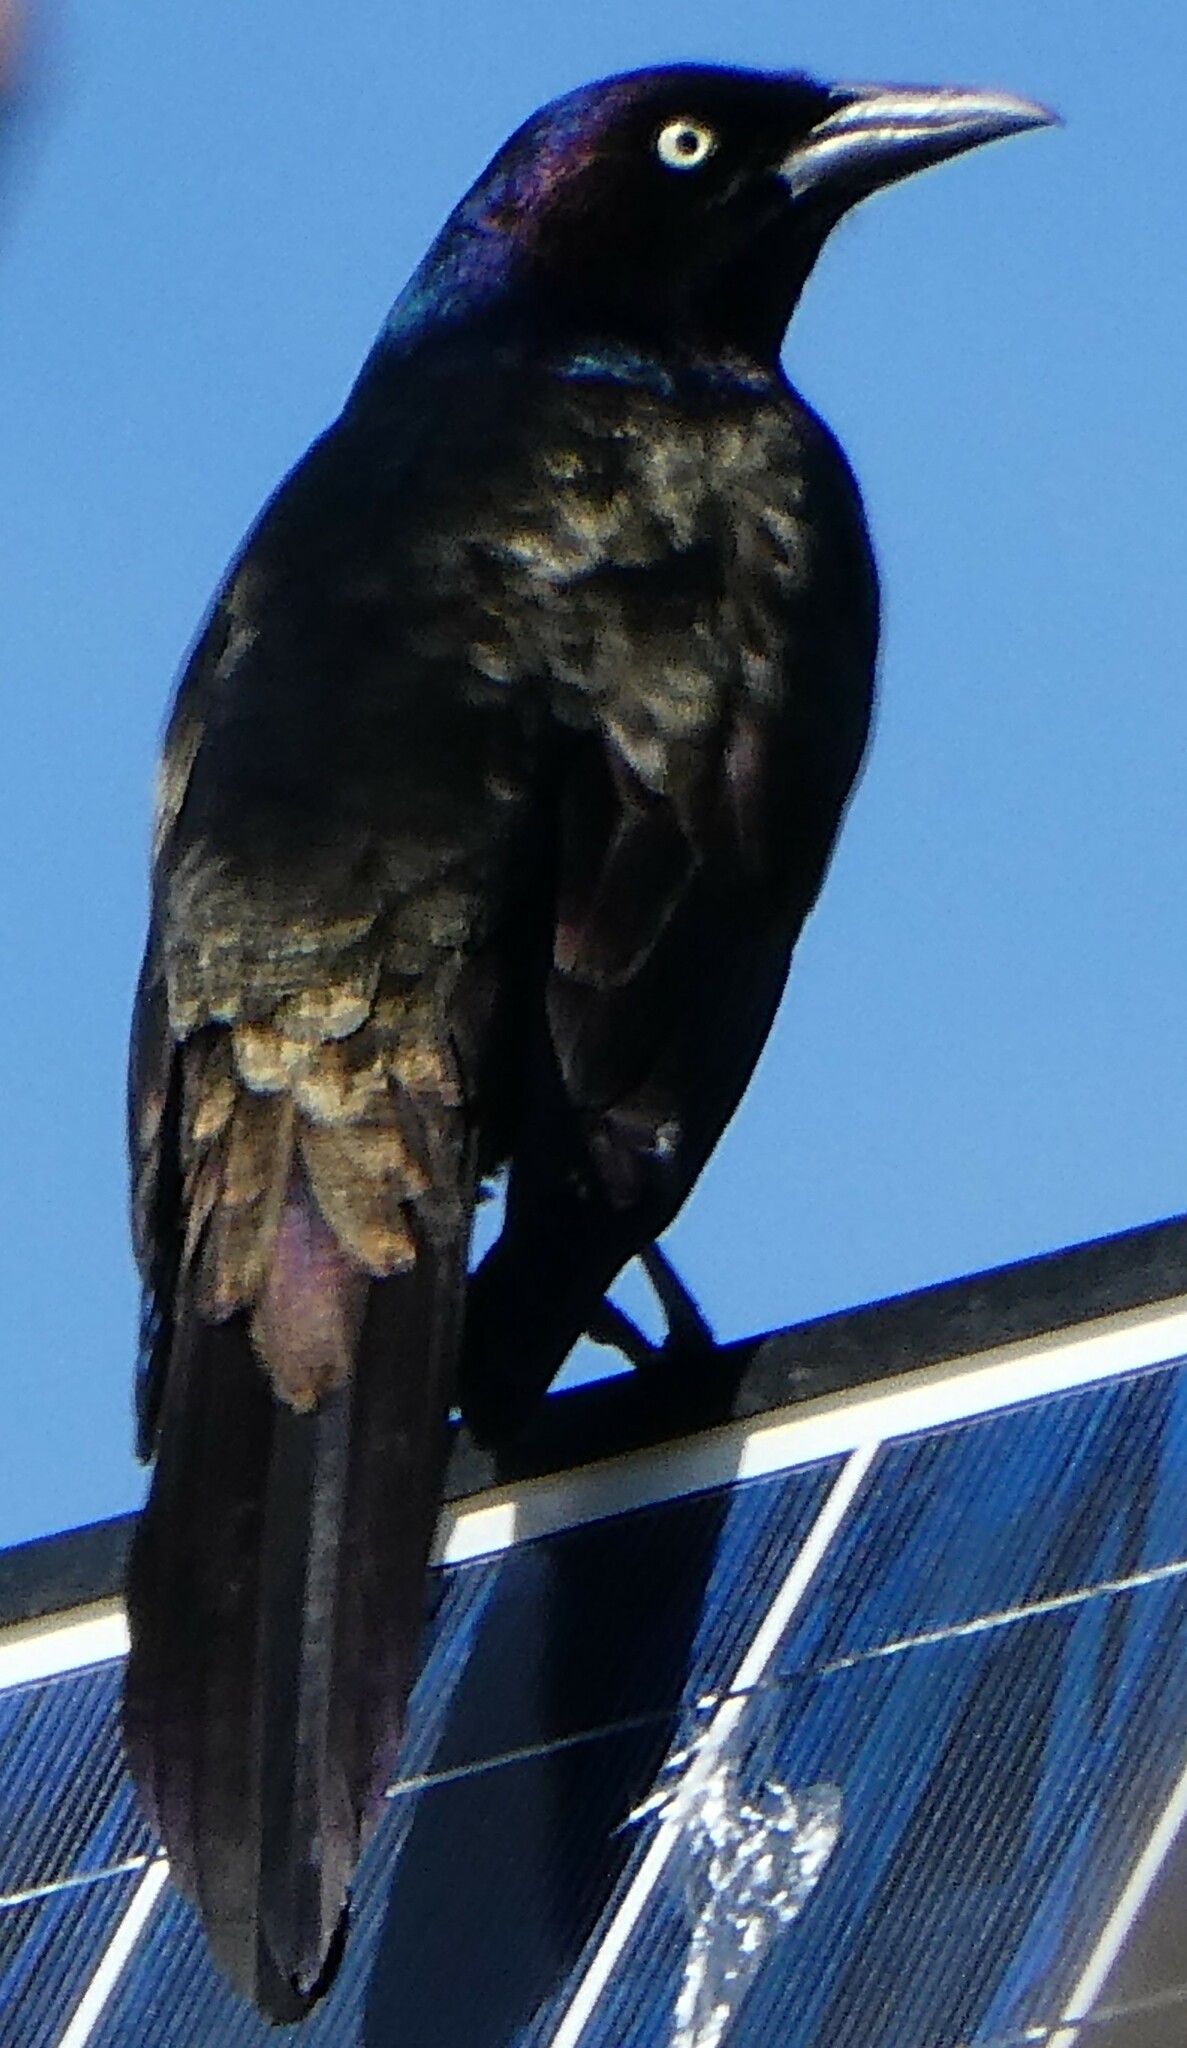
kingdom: Animalia
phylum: Chordata
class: Aves
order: Passeriformes
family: Icteridae
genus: Quiscalus
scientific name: Quiscalus quiscula
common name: Common grackle
